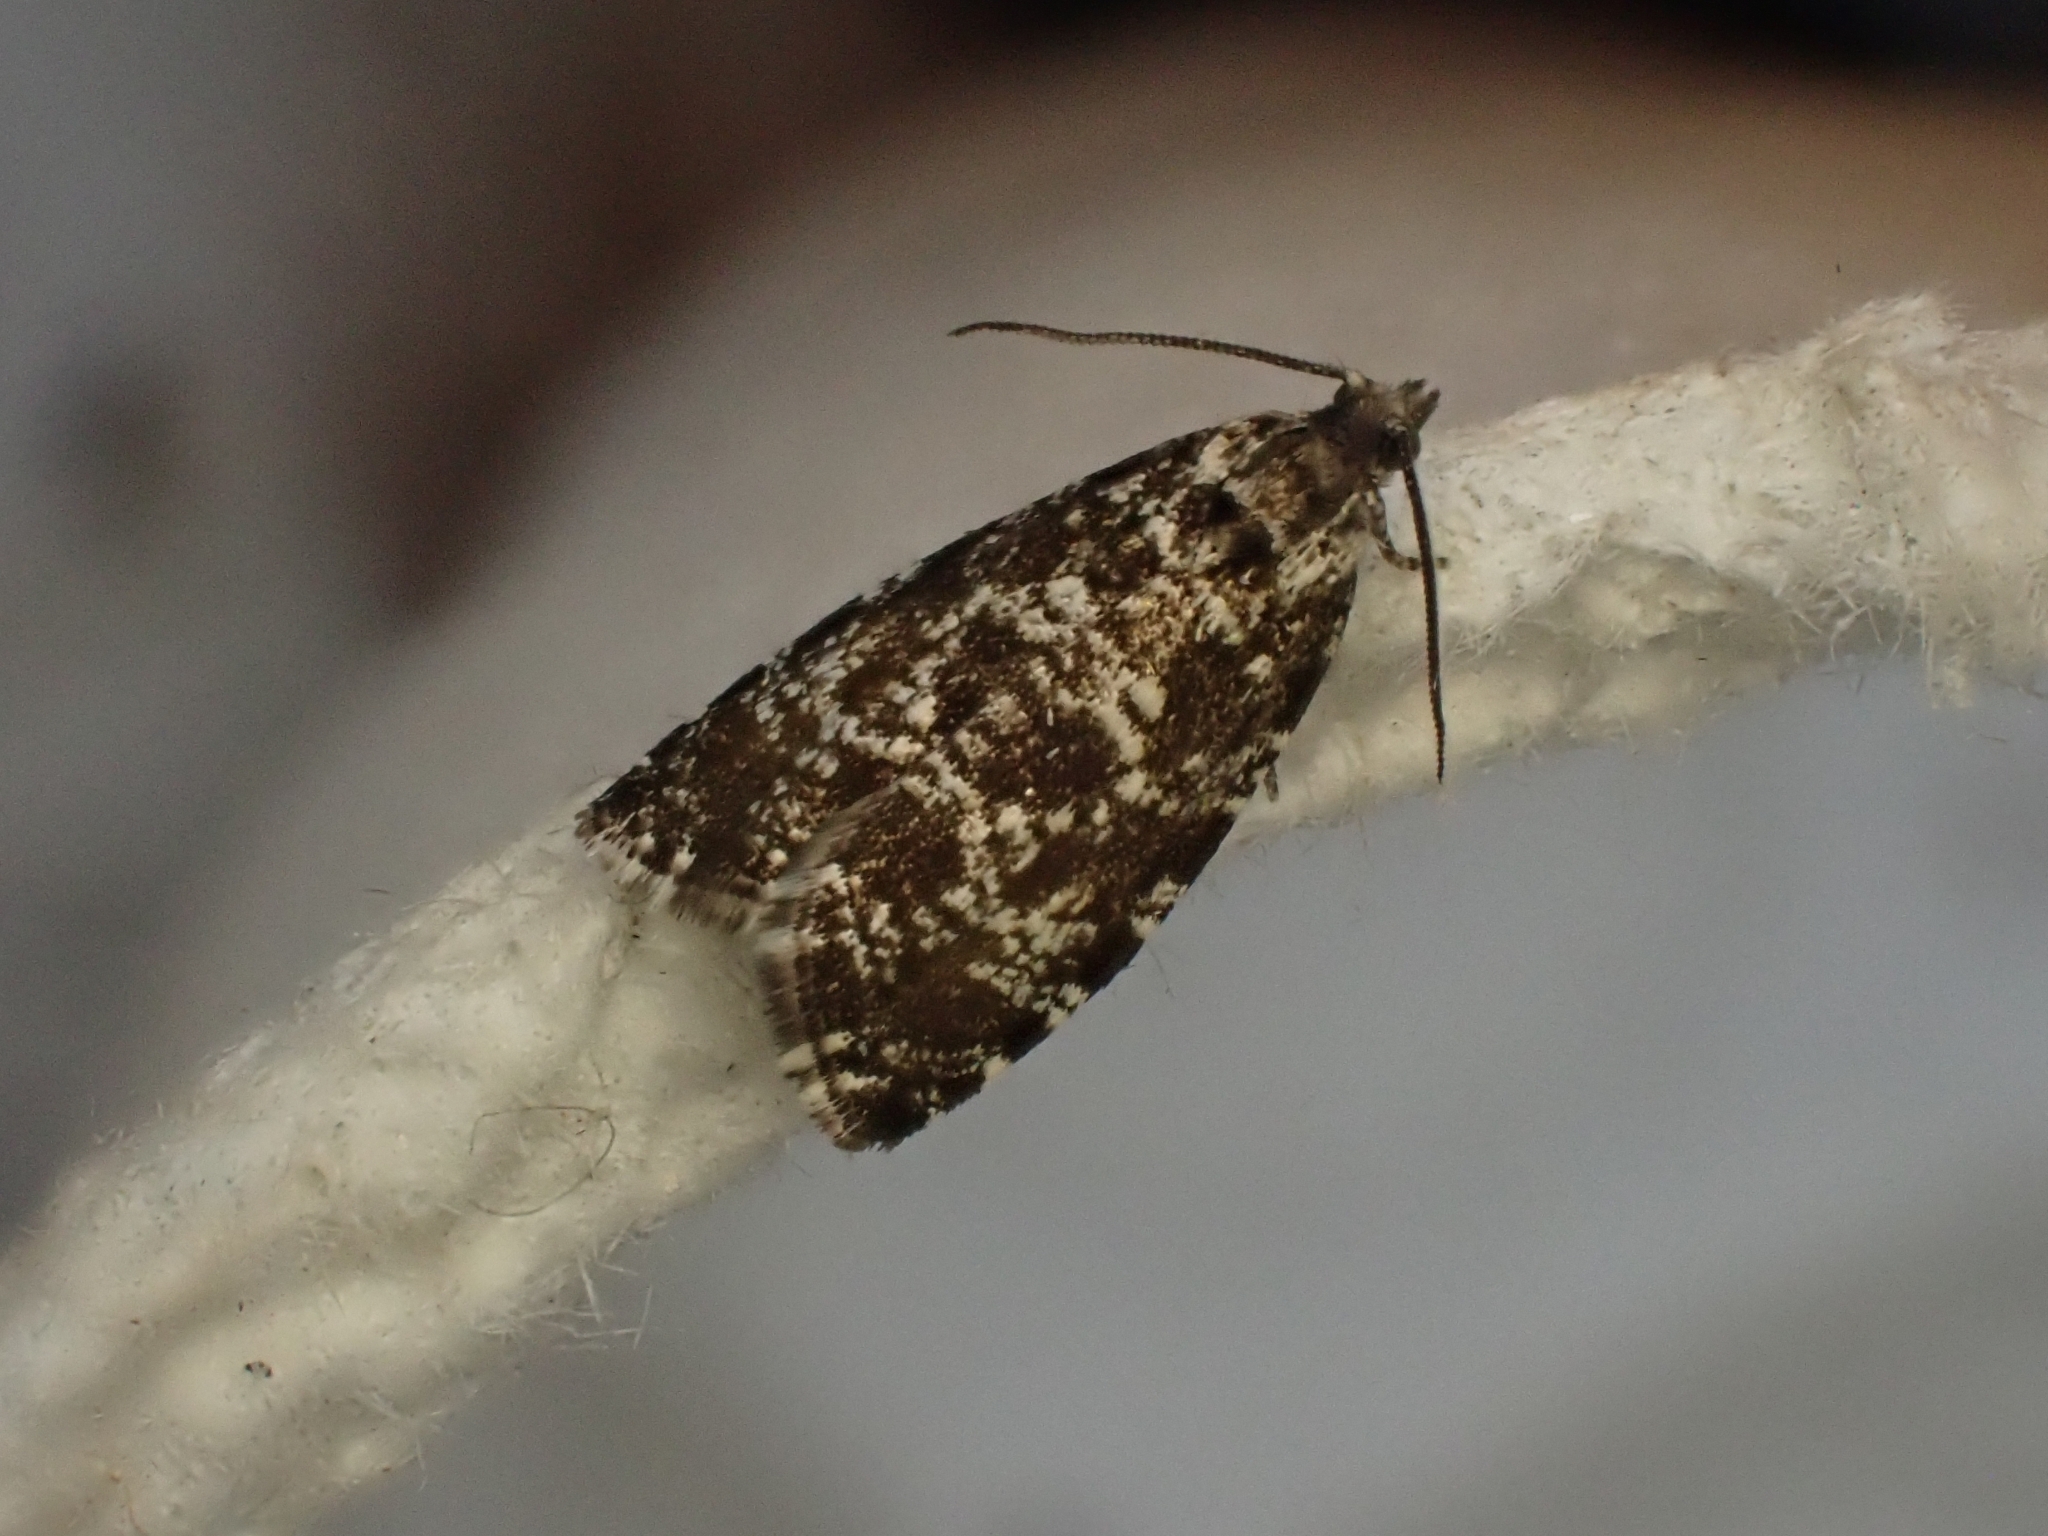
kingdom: Animalia
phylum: Arthropoda
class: Insecta
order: Lepidoptera
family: Tortricidae
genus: Pseudohermenias
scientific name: Pseudohermenias hercyniana
